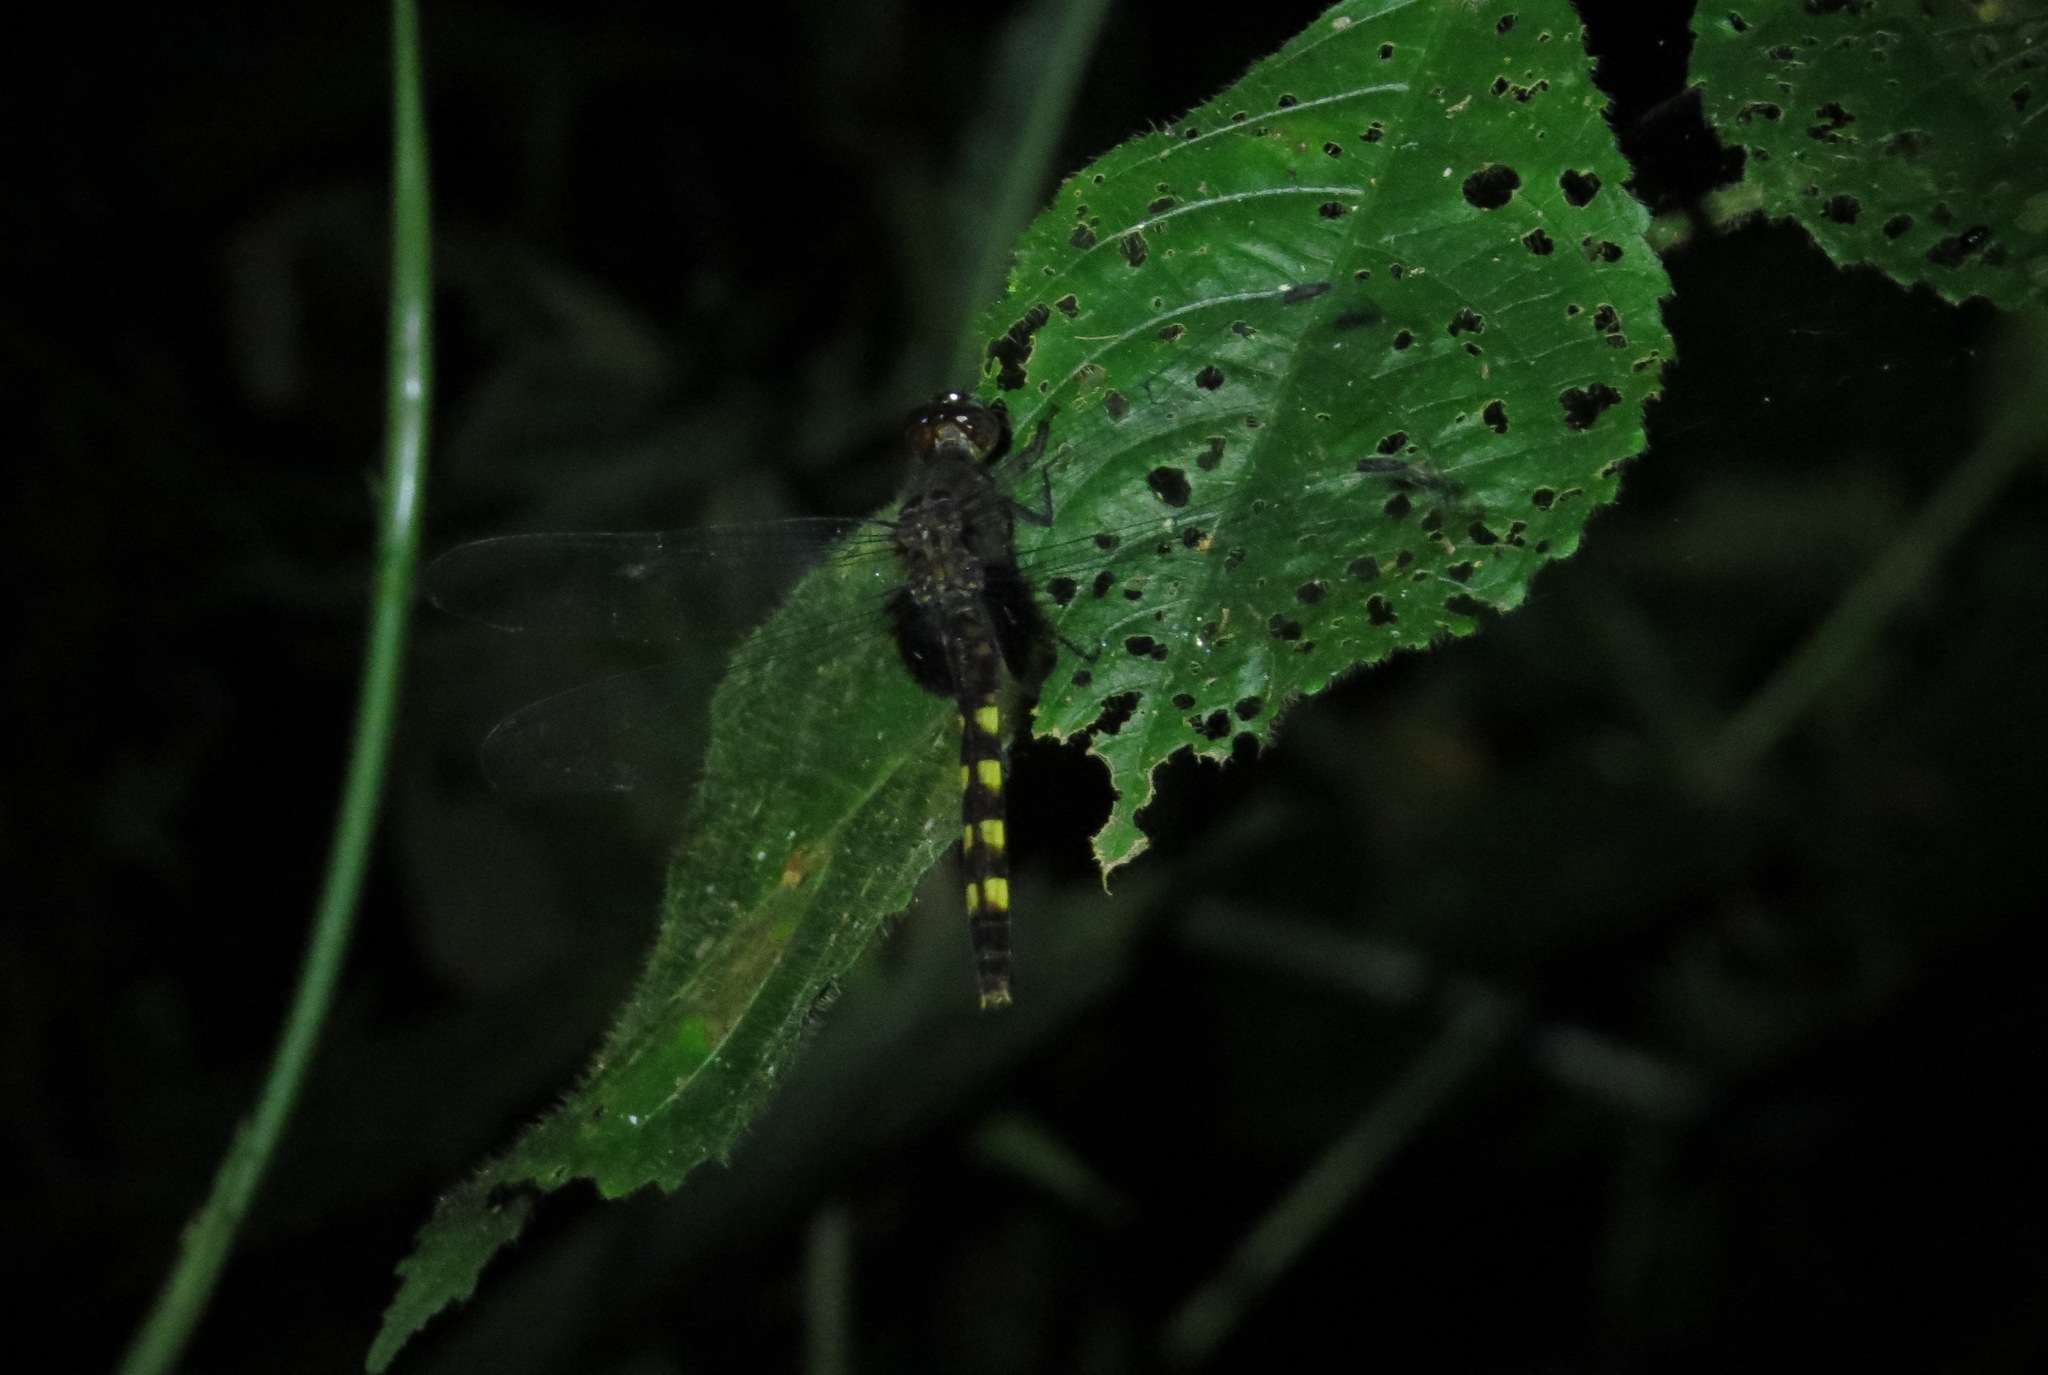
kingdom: Animalia
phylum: Arthropoda
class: Insecta
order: Odonata
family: Libellulidae
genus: Erythemis
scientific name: Erythemis attala
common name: Black pondhawk
